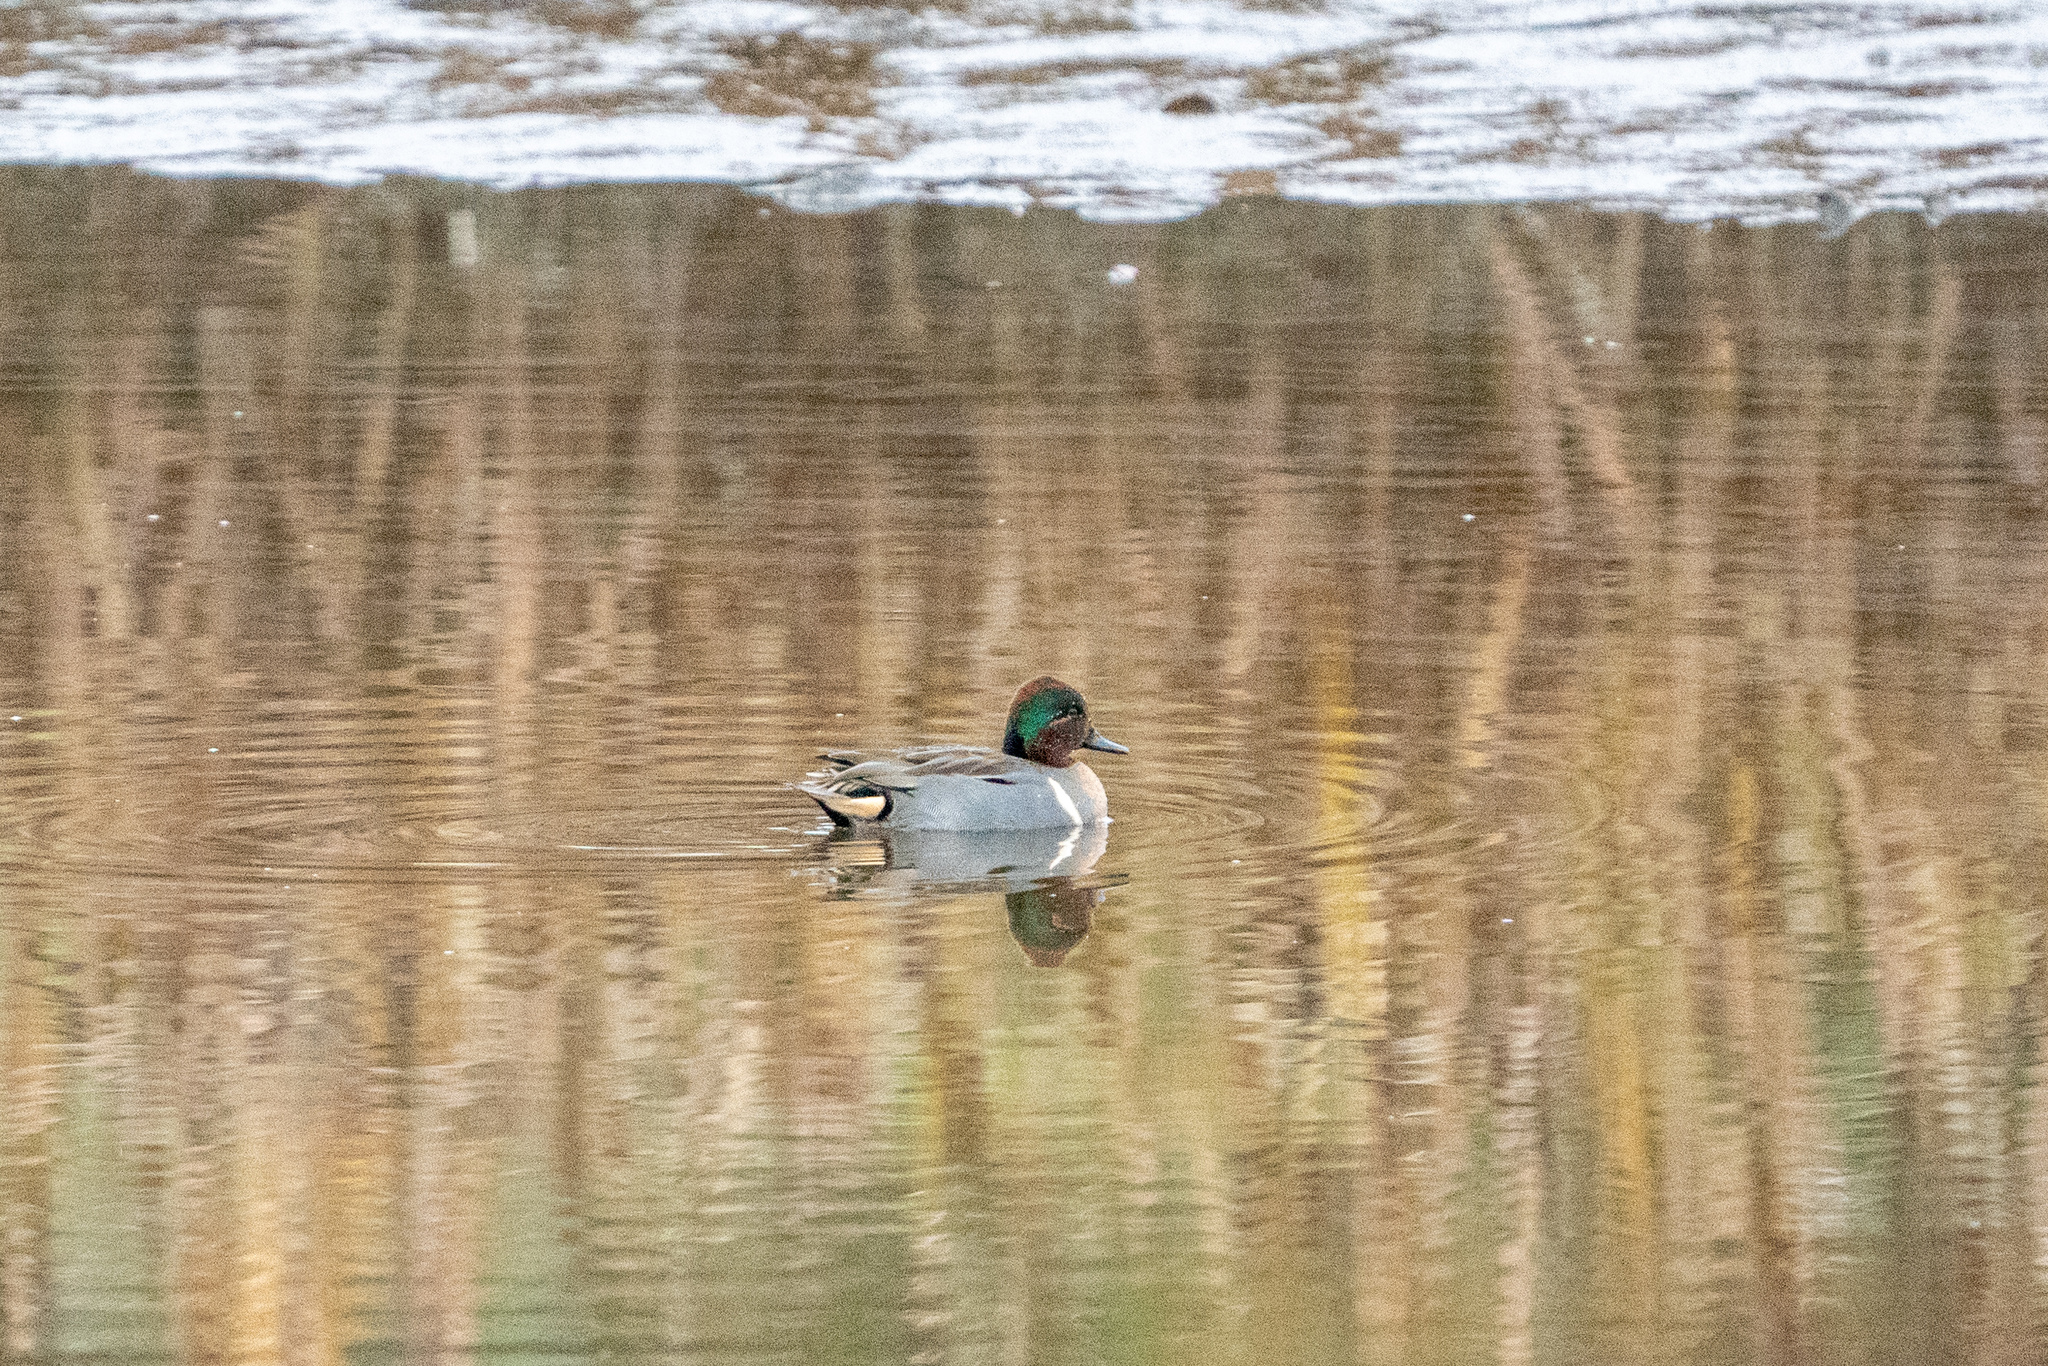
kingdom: Animalia
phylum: Chordata
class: Aves
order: Anseriformes
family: Anatidae
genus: Anas
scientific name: Anas carolinensis
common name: Green-winged teal
